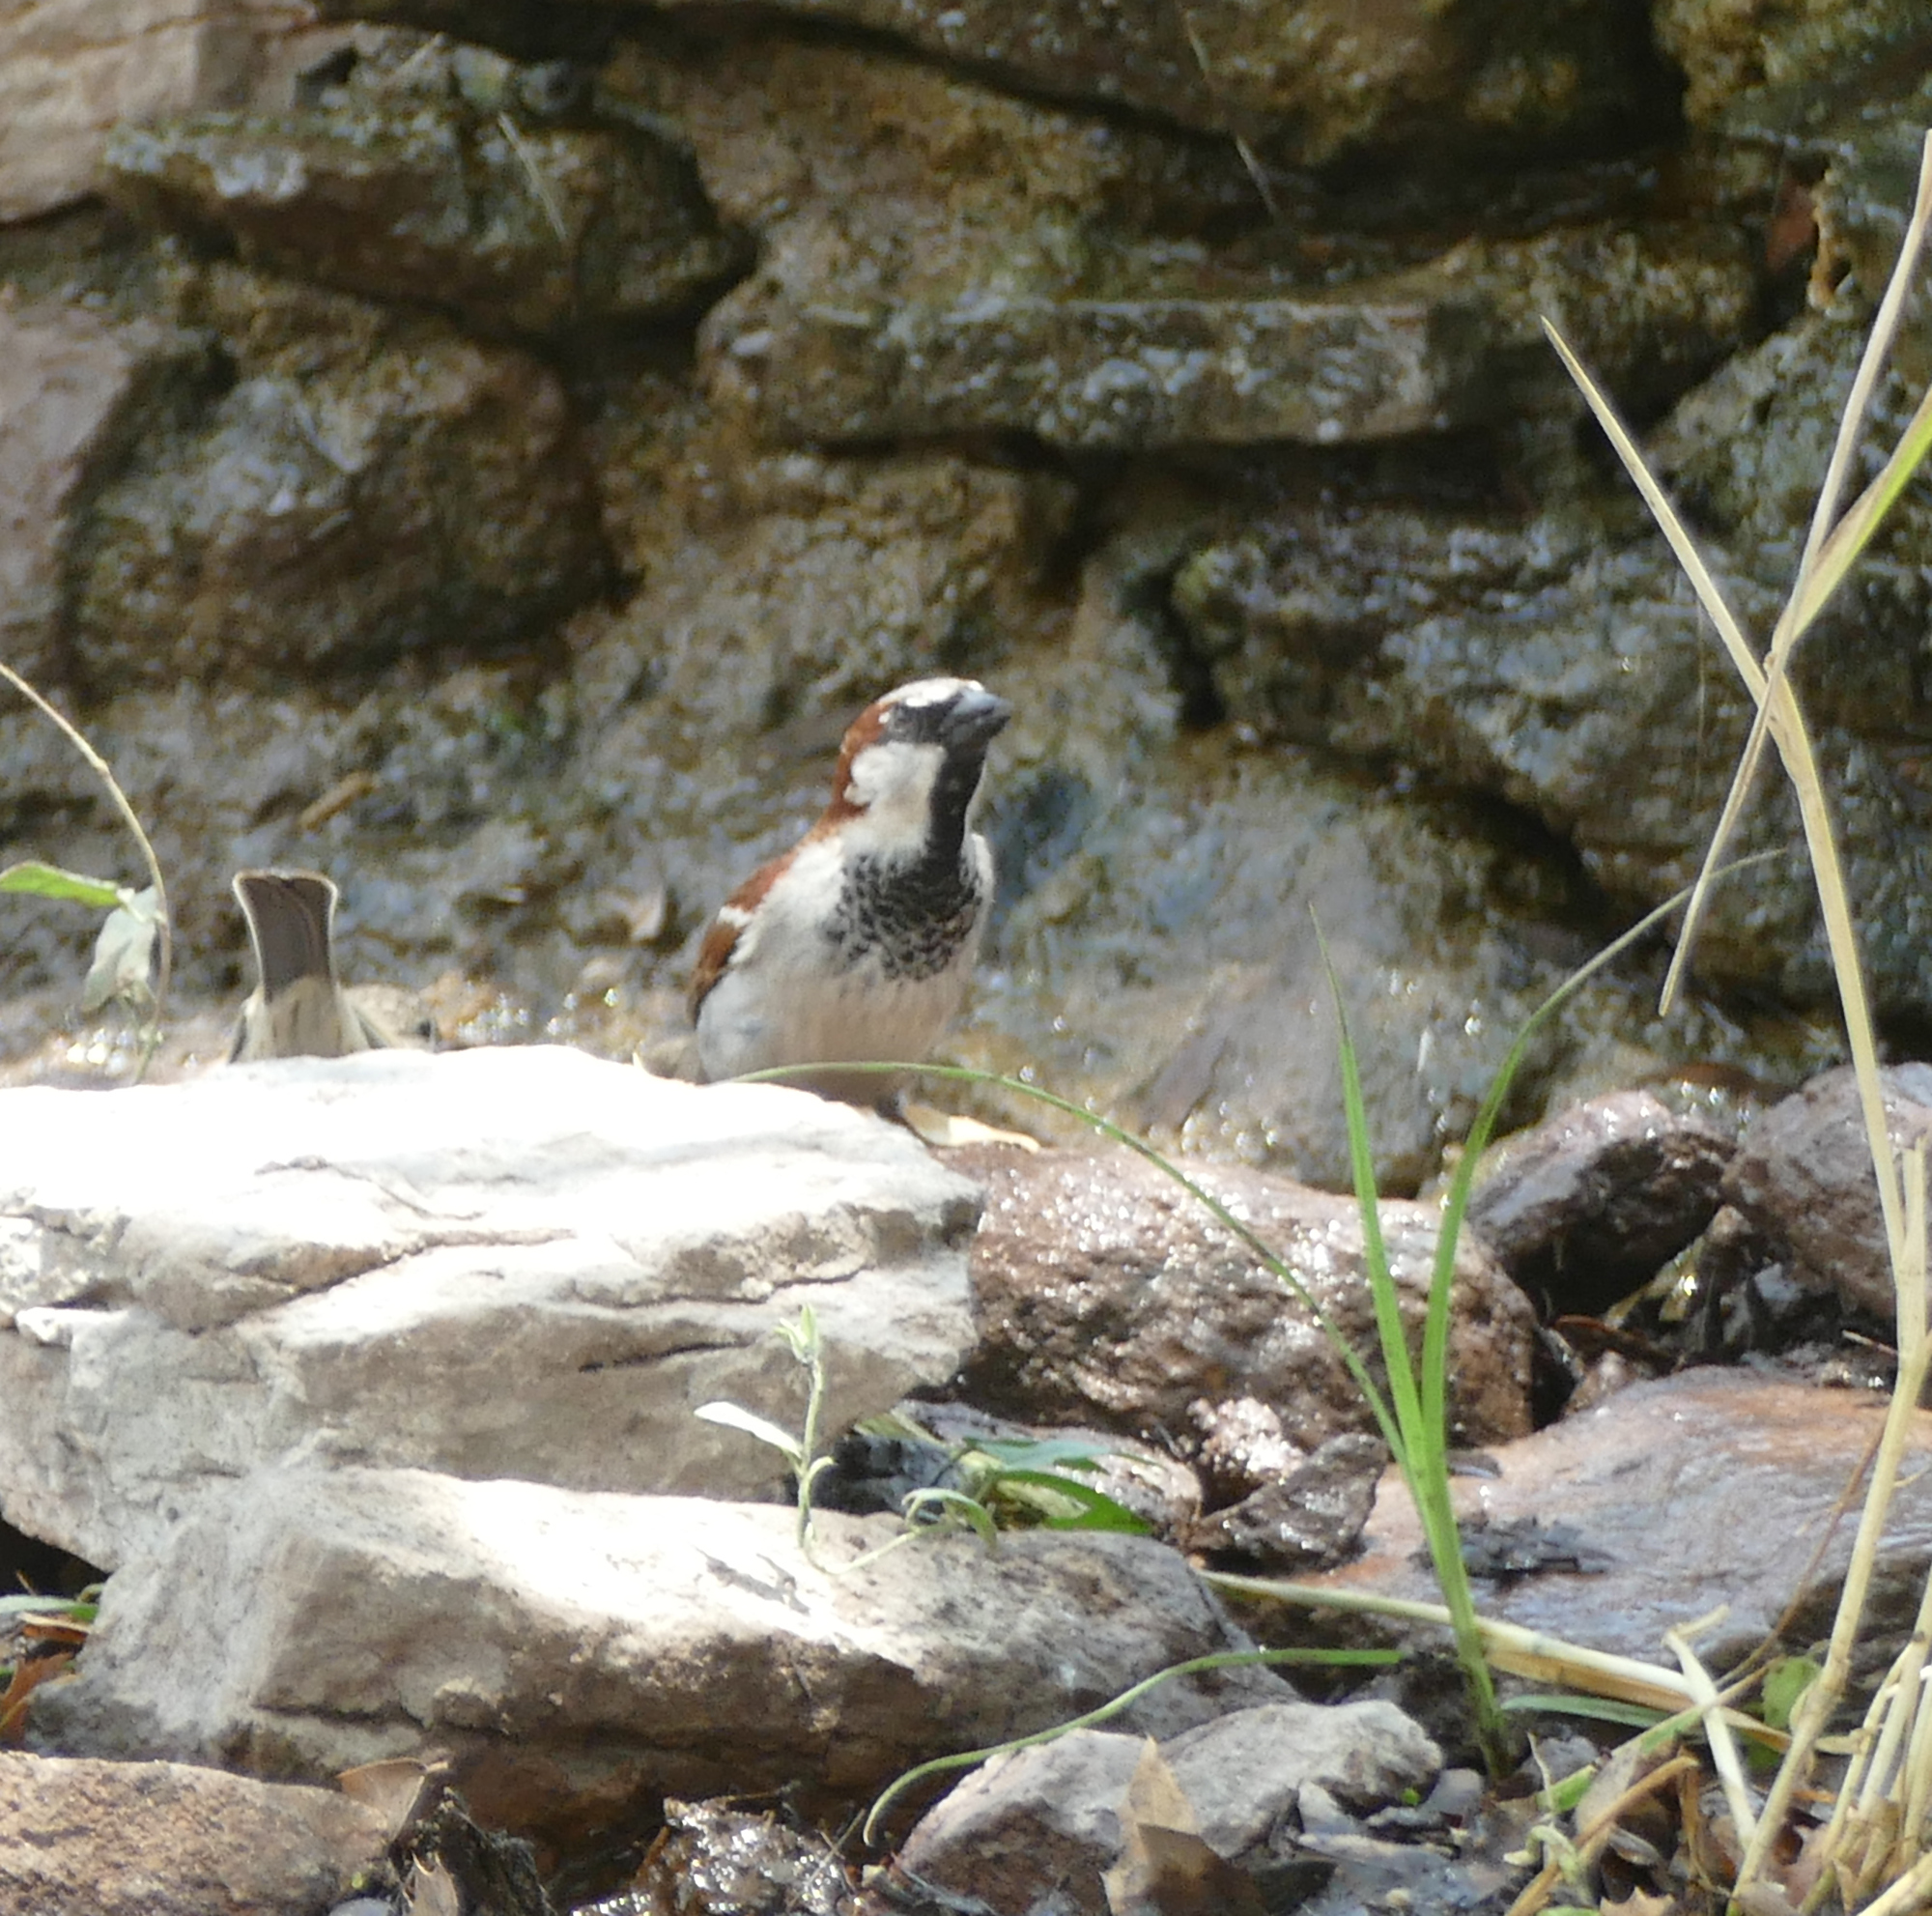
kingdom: Animalia
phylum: Chordata
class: Aves
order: Passeriformes
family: Passeridae
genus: Passer
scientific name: Passer domesticus
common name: House sparrow
